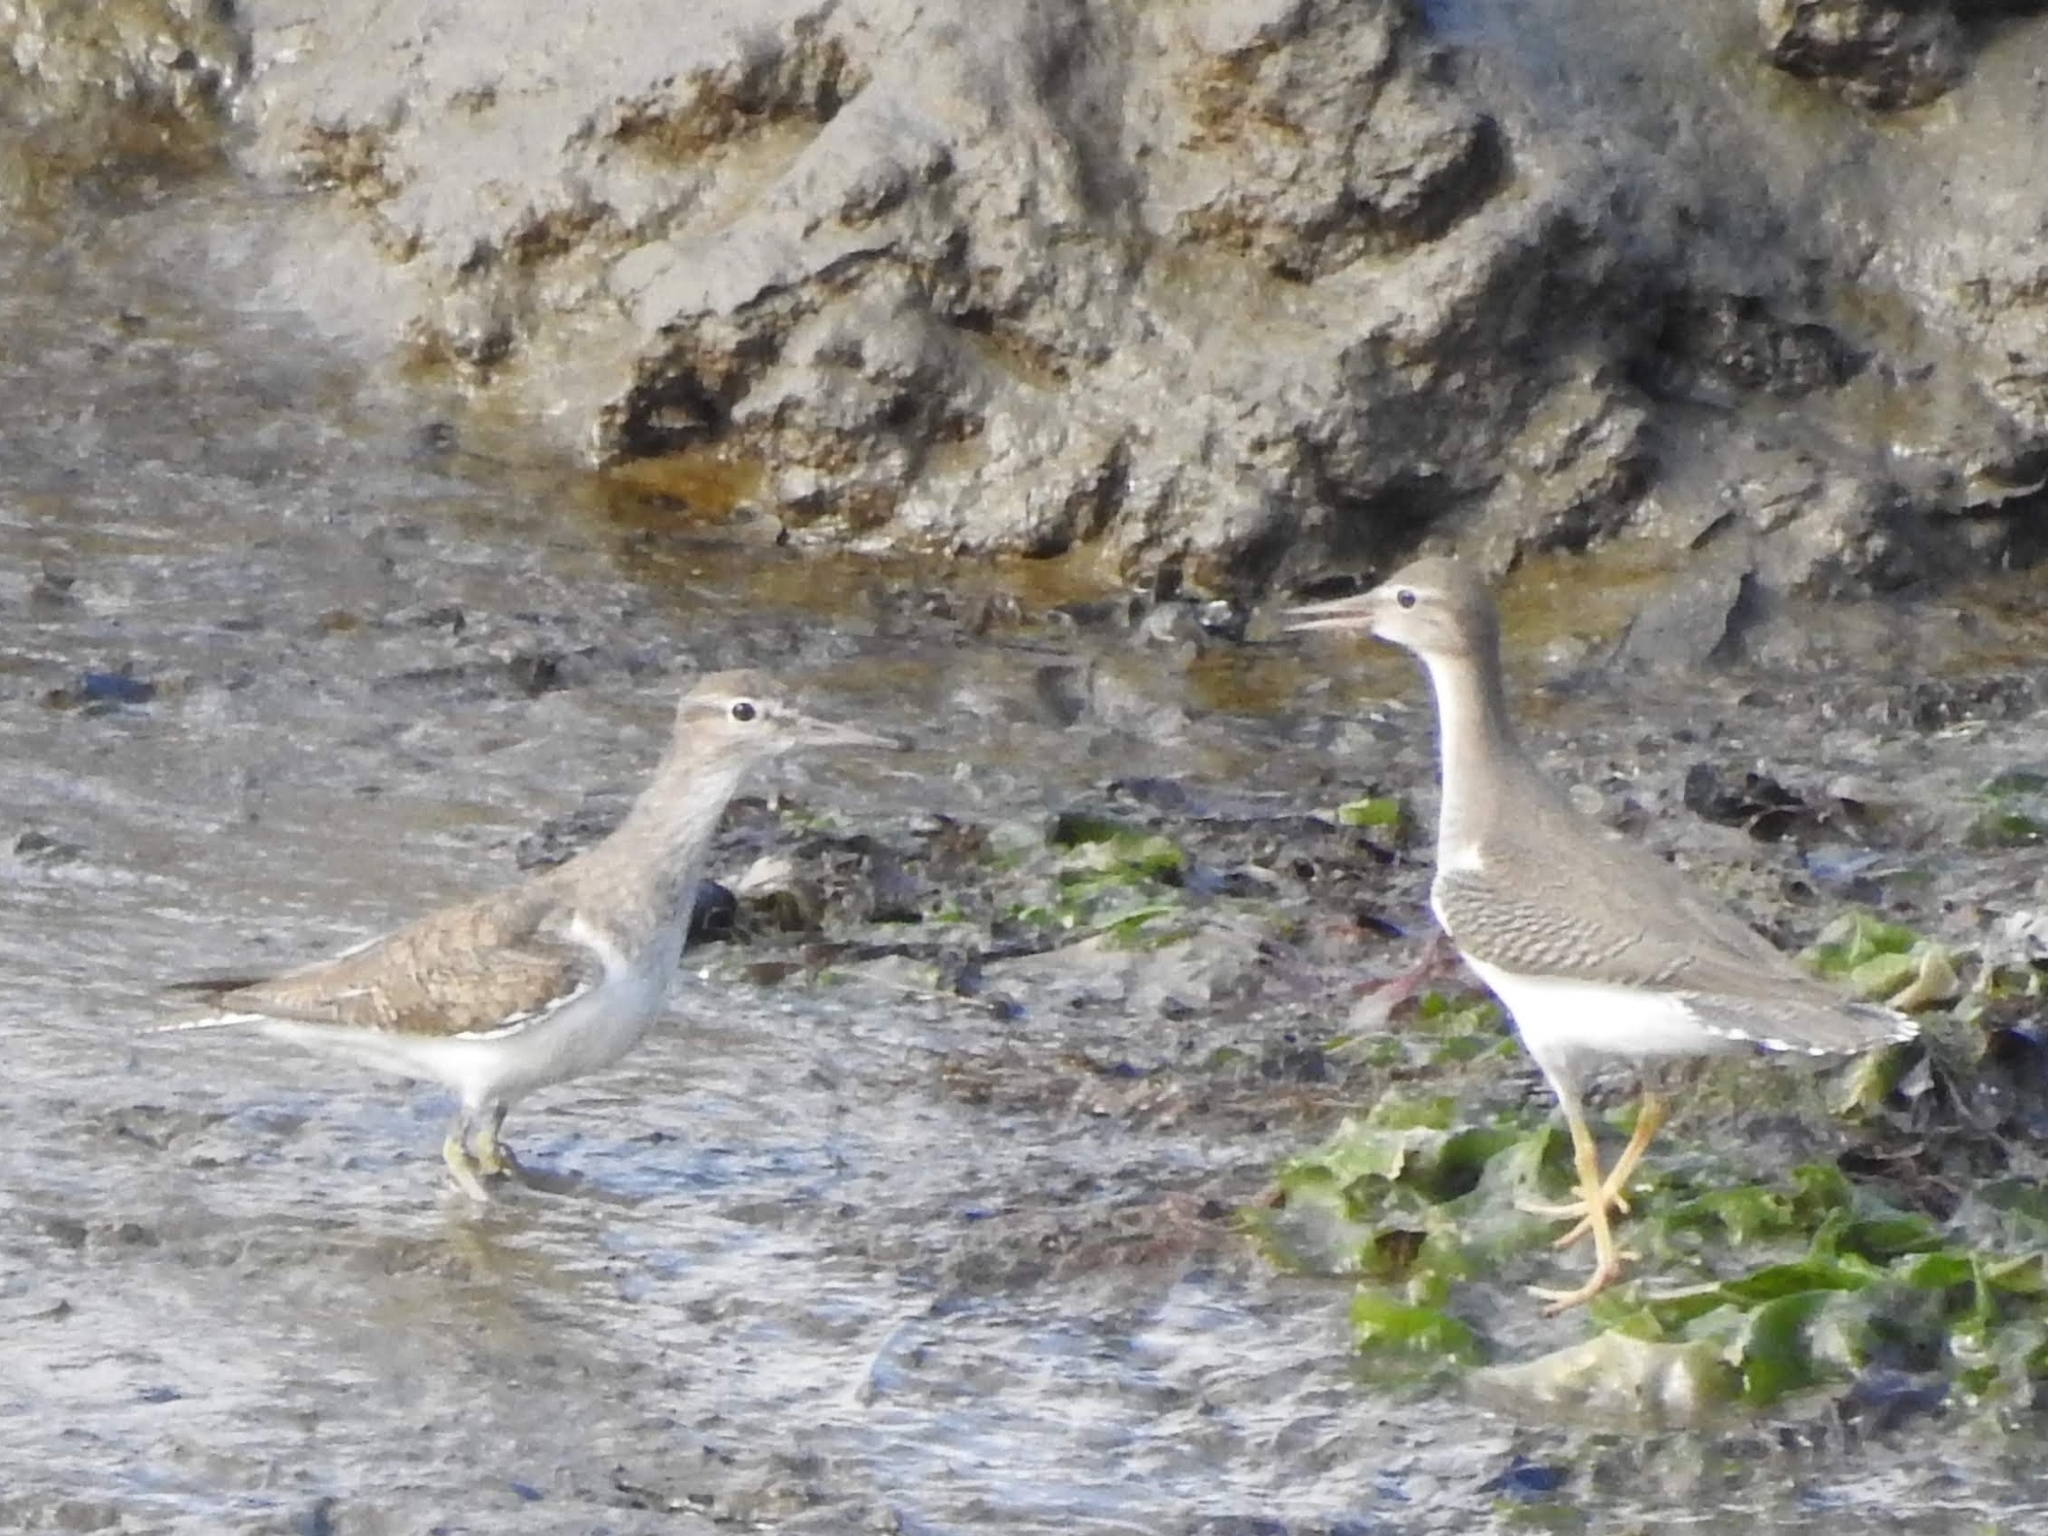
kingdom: Animalia
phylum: Chordata
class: Aves
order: Charadriiformes
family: Scolopacidae
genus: Actitis
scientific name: Actitis macularius
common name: Spotted sandpiper
